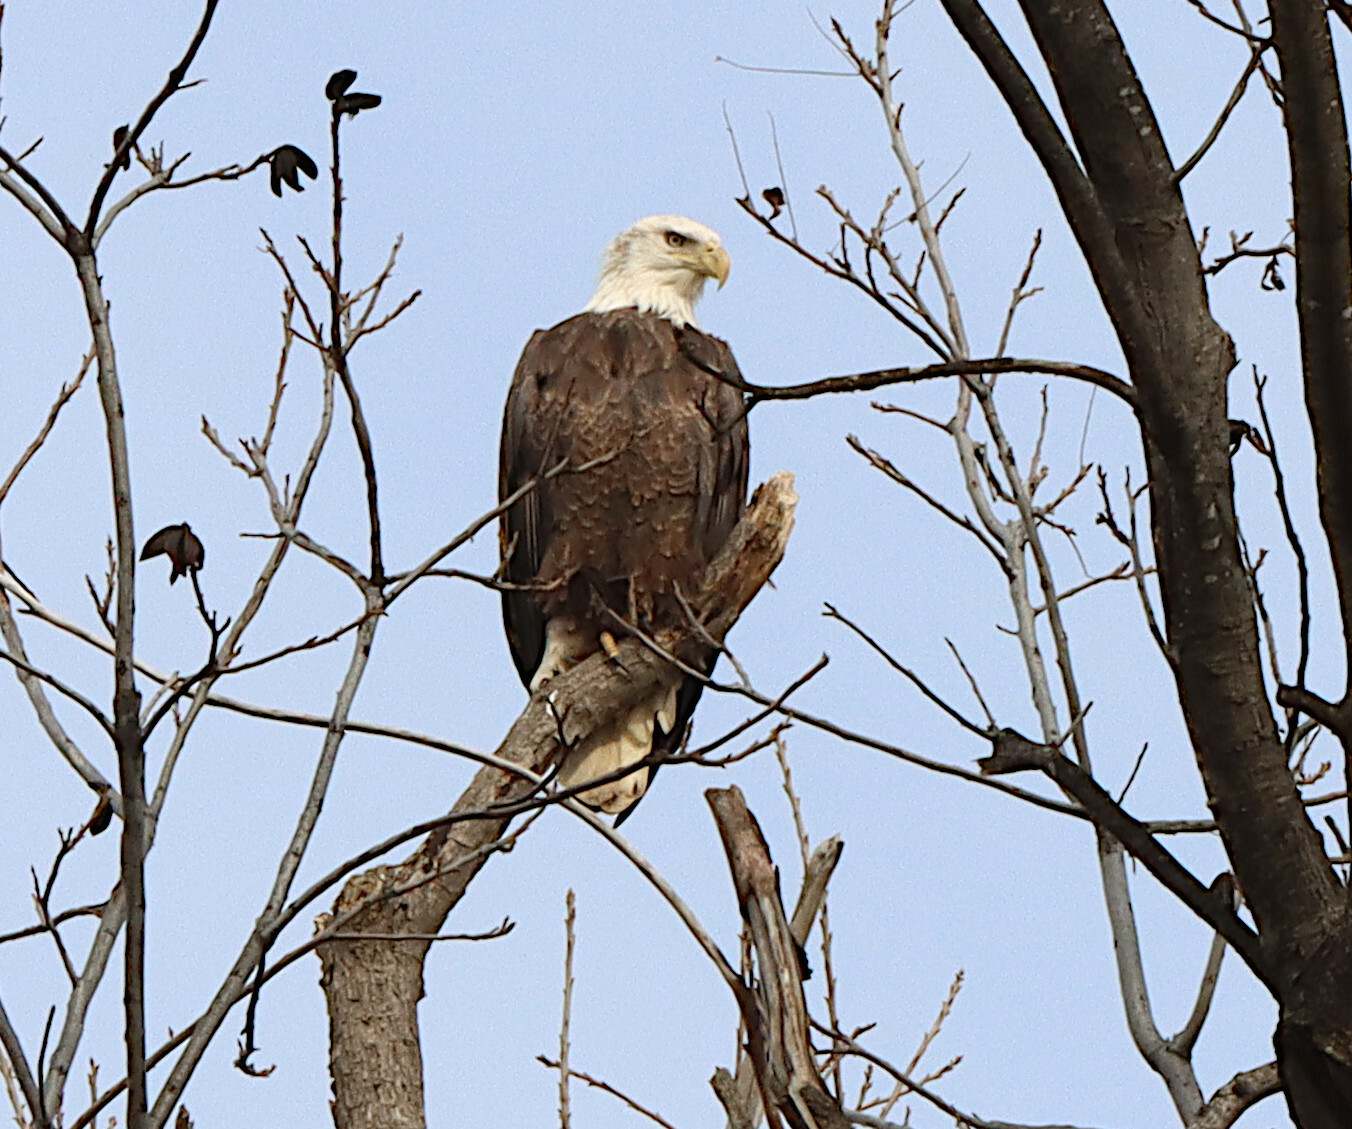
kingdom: Animalia
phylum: Chordata
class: Aves
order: Accipitriformes
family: Accipitridae
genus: Haliaeetus
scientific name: Haliaeetus leucocephalus
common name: Bald eagle
